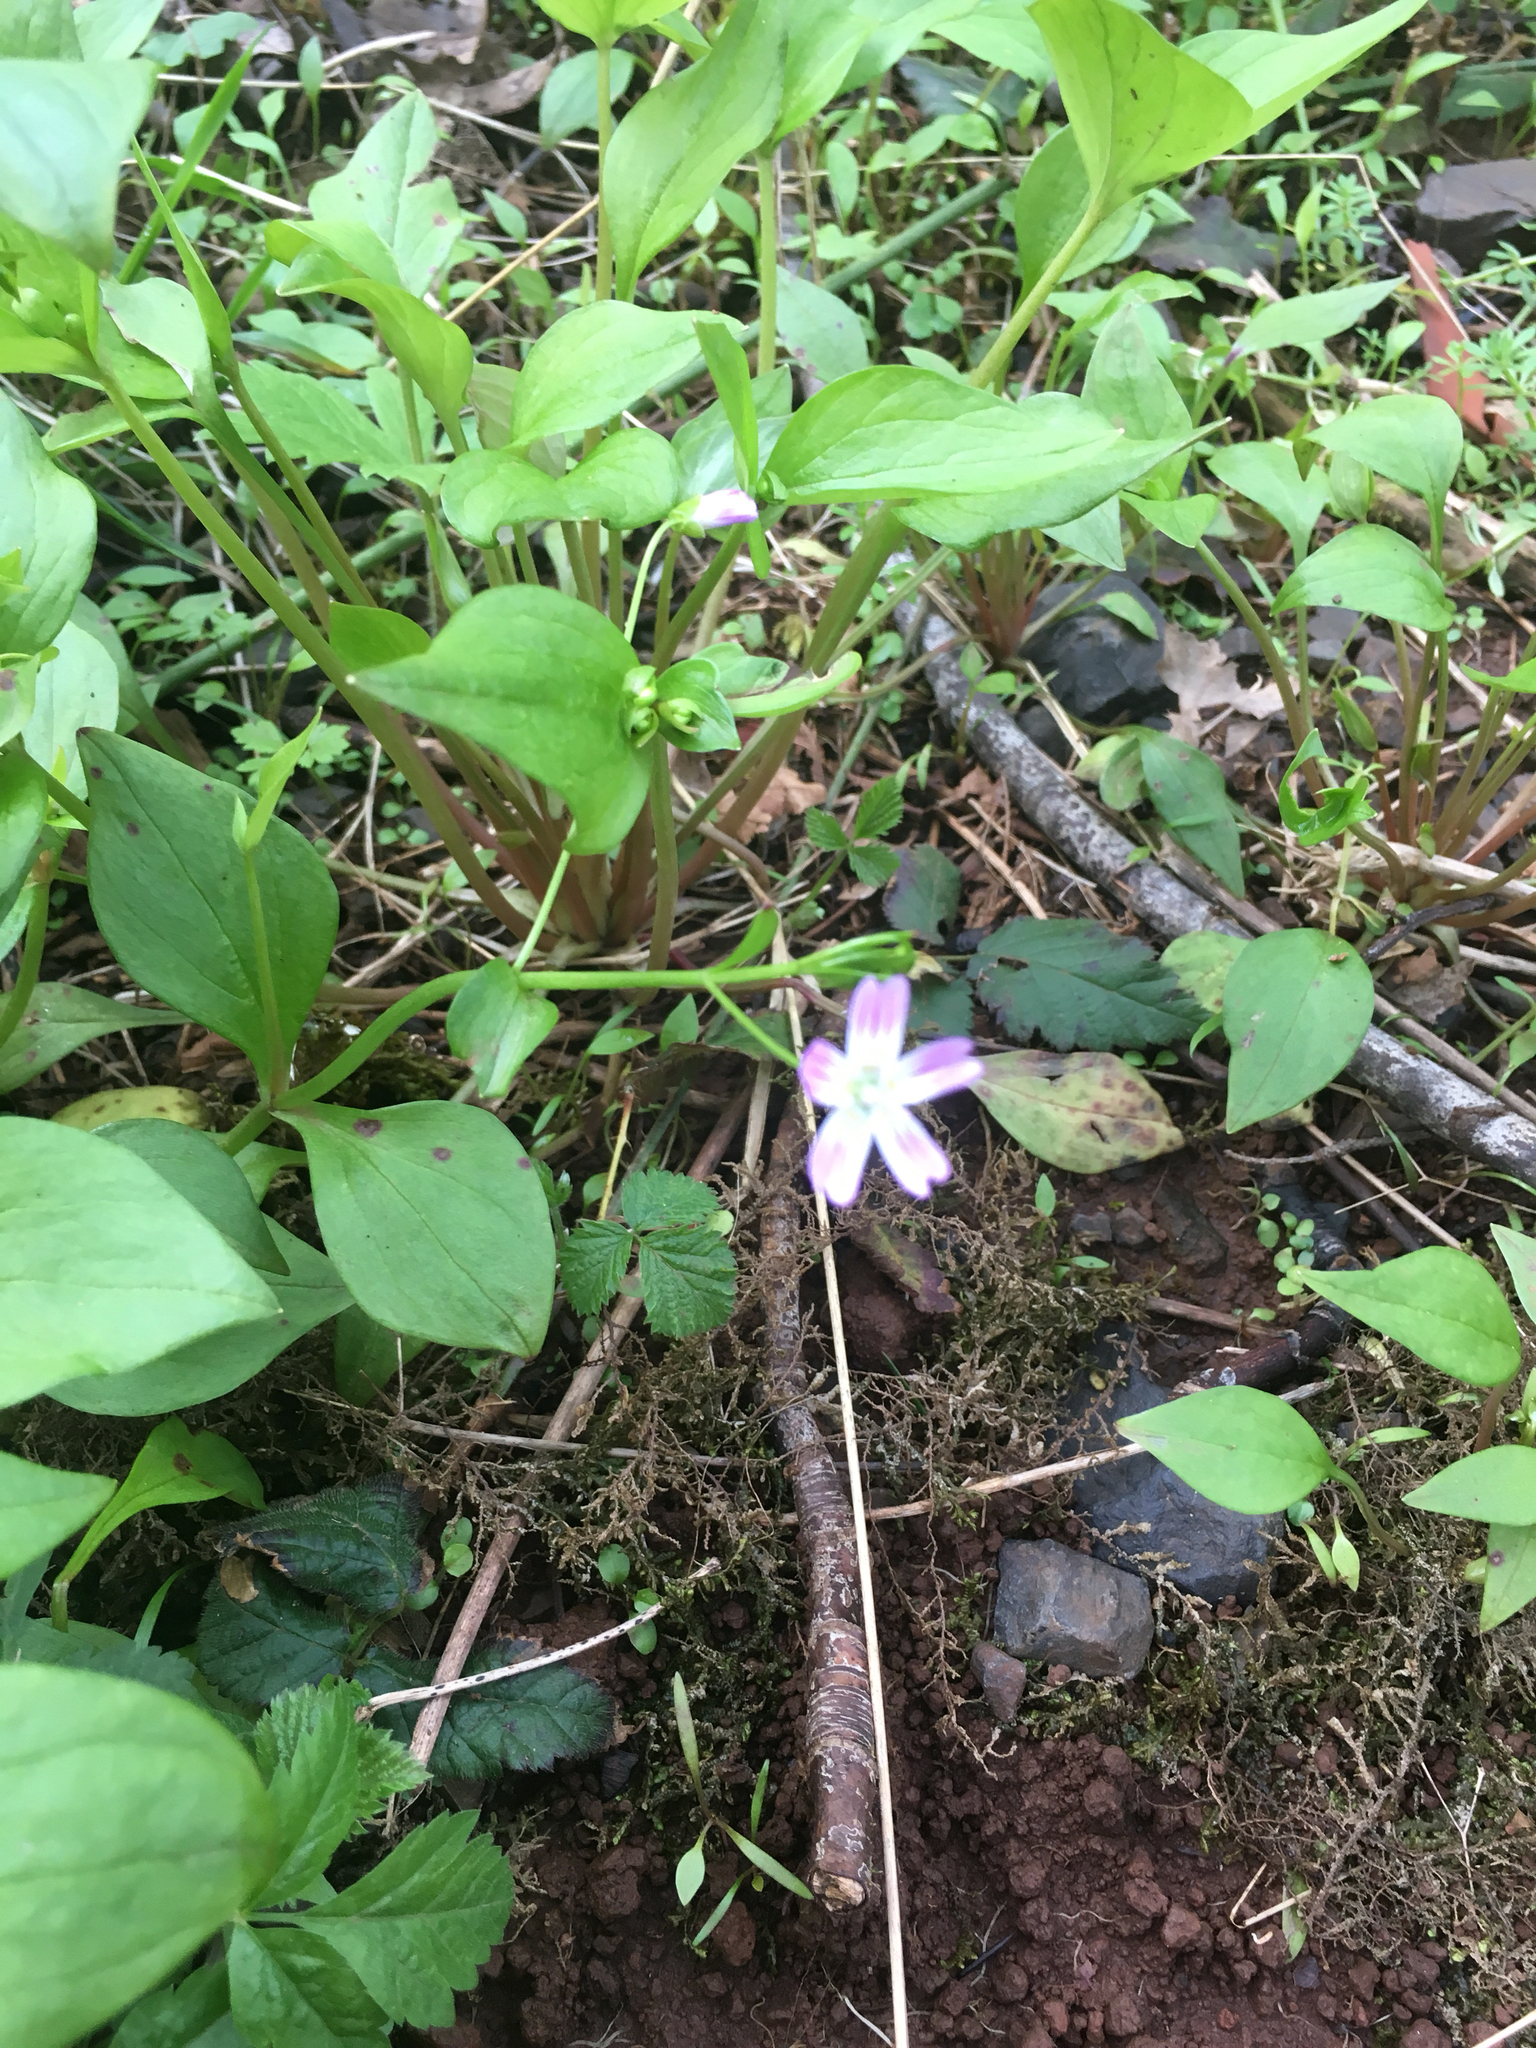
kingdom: Plantae
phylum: Tracheophyta
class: Magnoliopsida
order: Caryophyllales
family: Montiaceae
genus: Claytonia
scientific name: Claytonia sibirica
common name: Pink purslane
